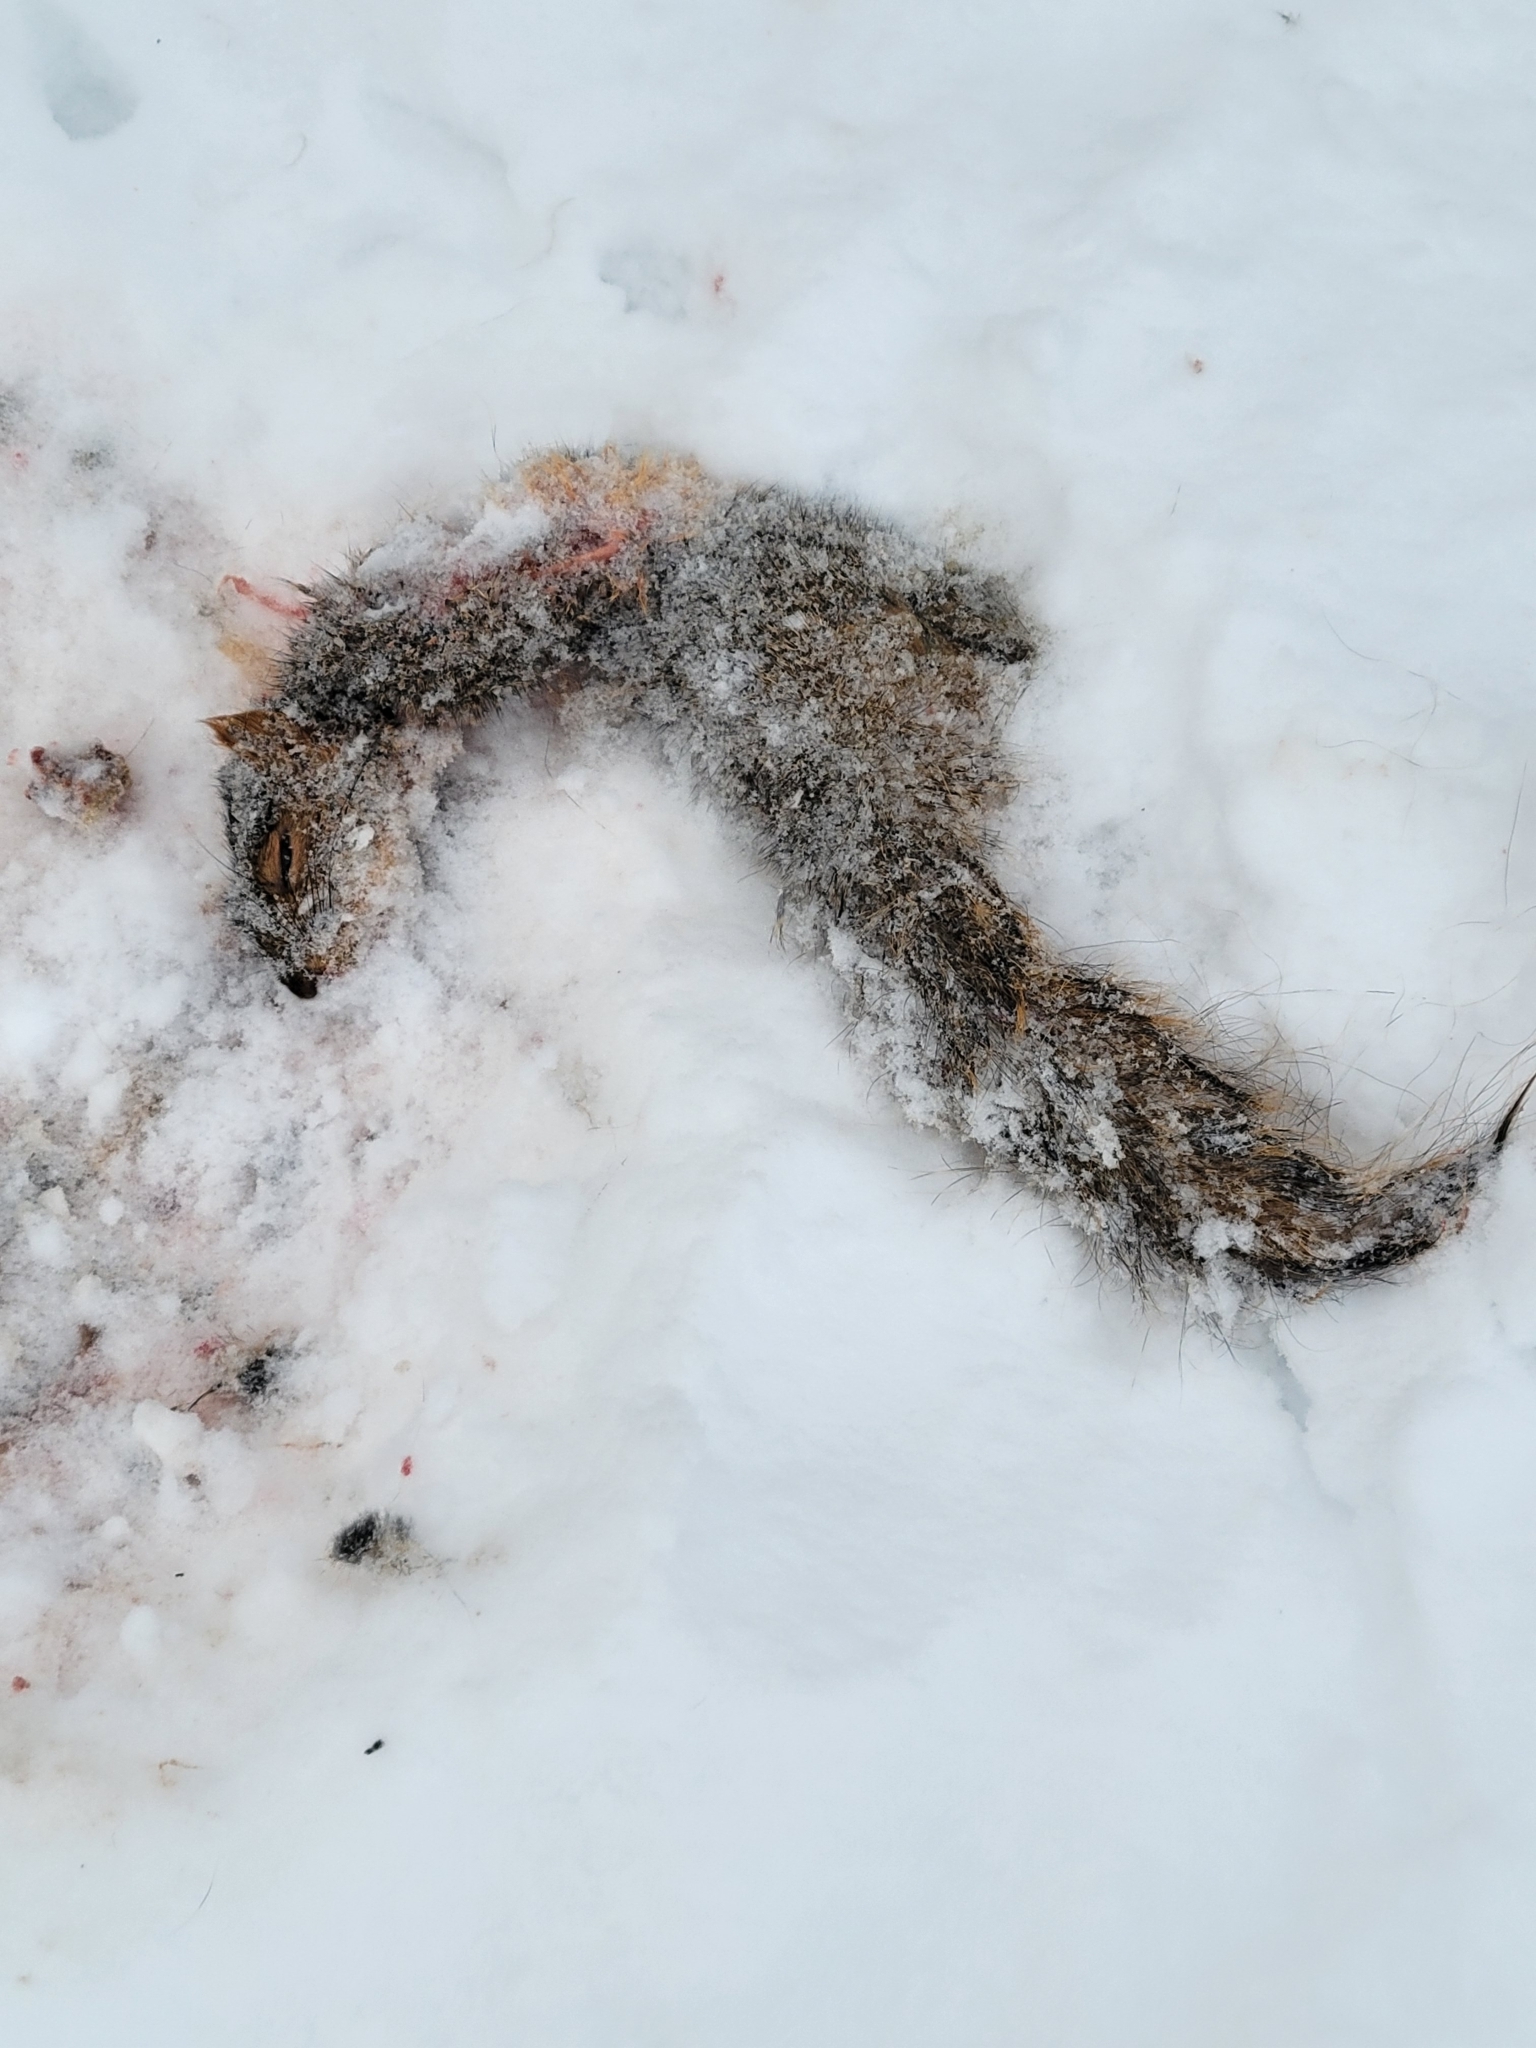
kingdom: Animalia
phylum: Chordata
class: Mammalia
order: Rodentia
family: Sciuridae
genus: Sciurus
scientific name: Sciurus niger
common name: Fox squirrel
